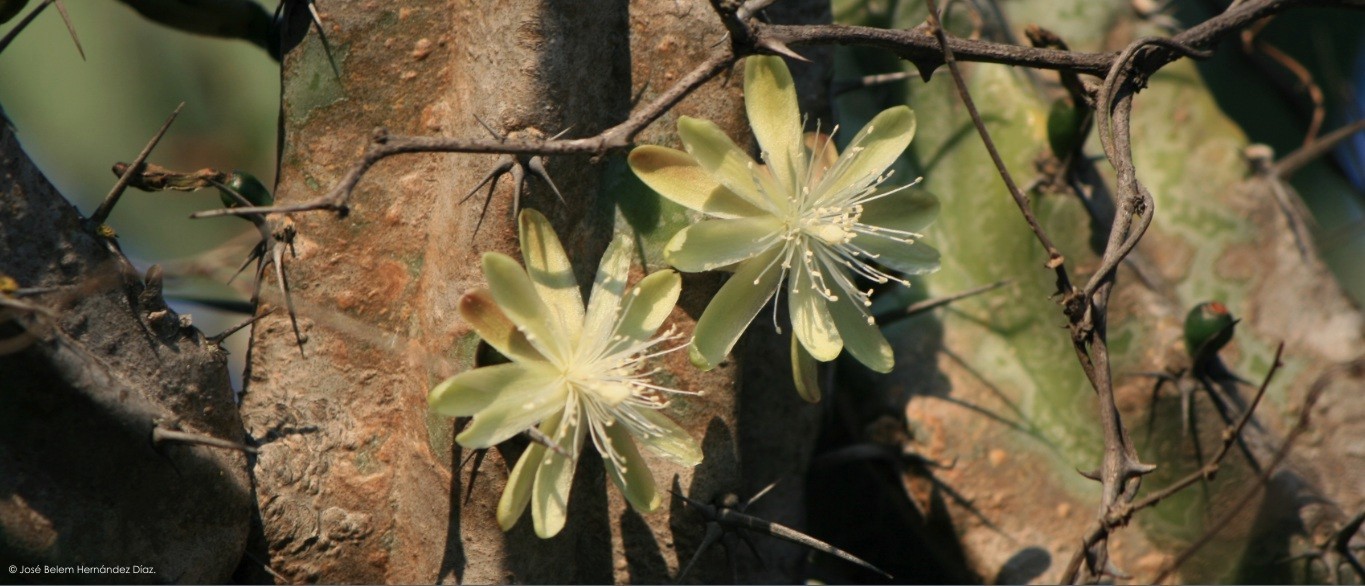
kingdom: Plantae
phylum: Tracheophyta
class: Magnoliopsida
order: Caryophyllales
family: Cactaceae
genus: Myrtillocactus
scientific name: Myrtillocactus geometrizans
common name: Bilberry cactus
